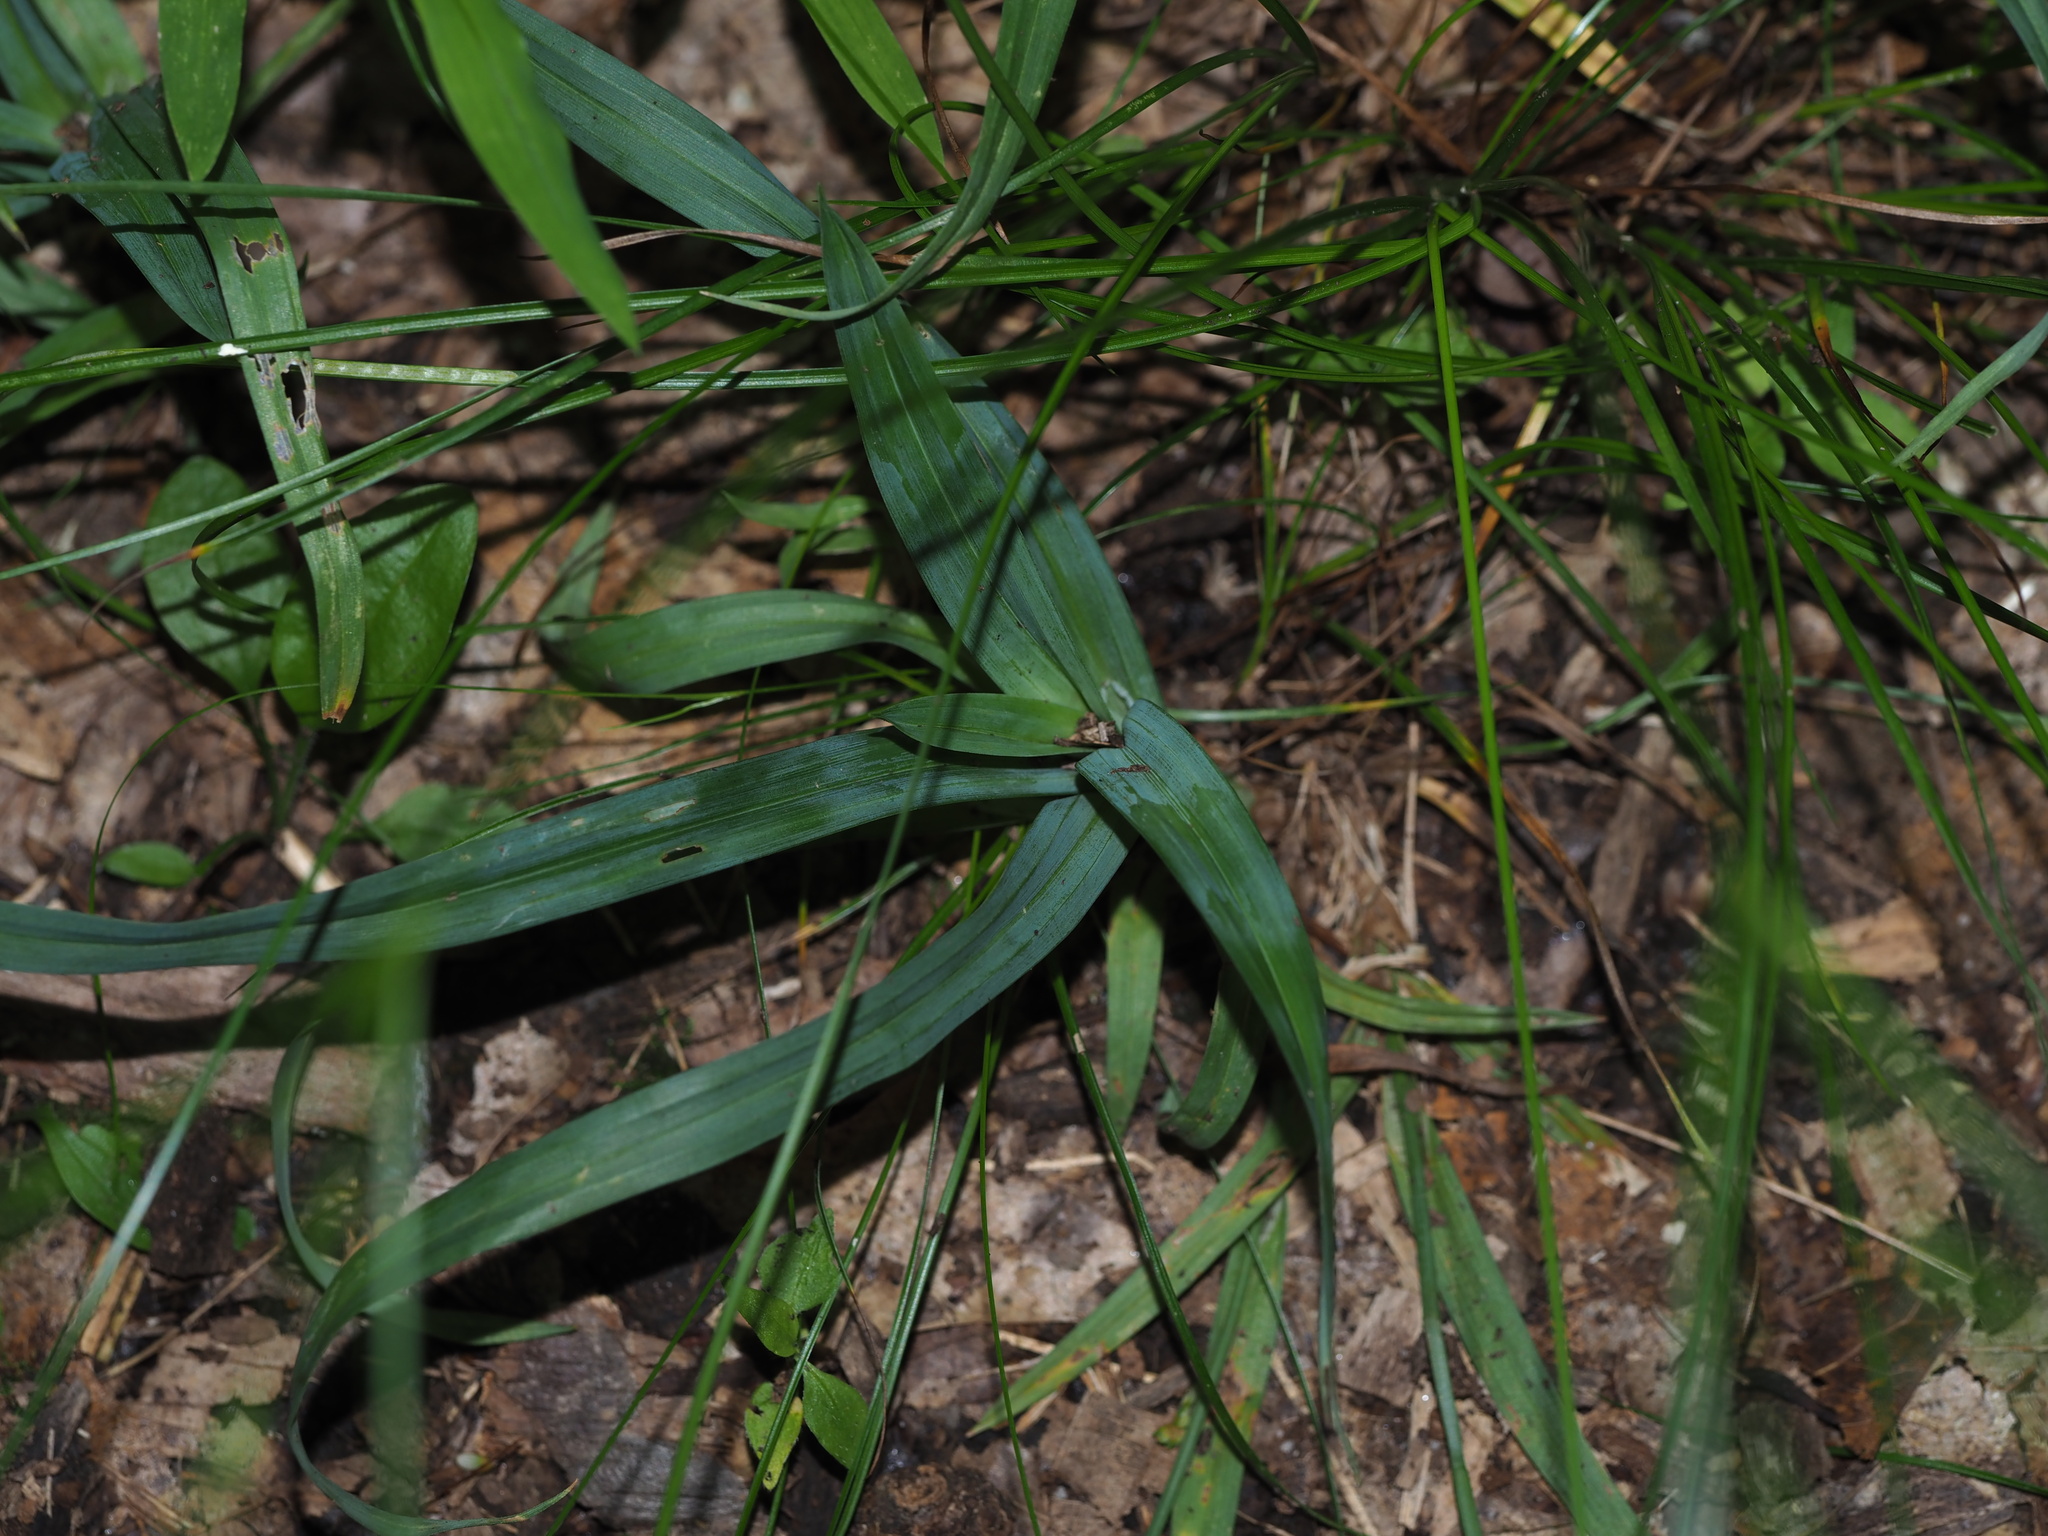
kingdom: Plantae
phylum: Tracheophyta
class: Liliopsida
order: Poales
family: Cyperaceae
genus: Carex
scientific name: Carex laxiculmis
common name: Spreading sedge
